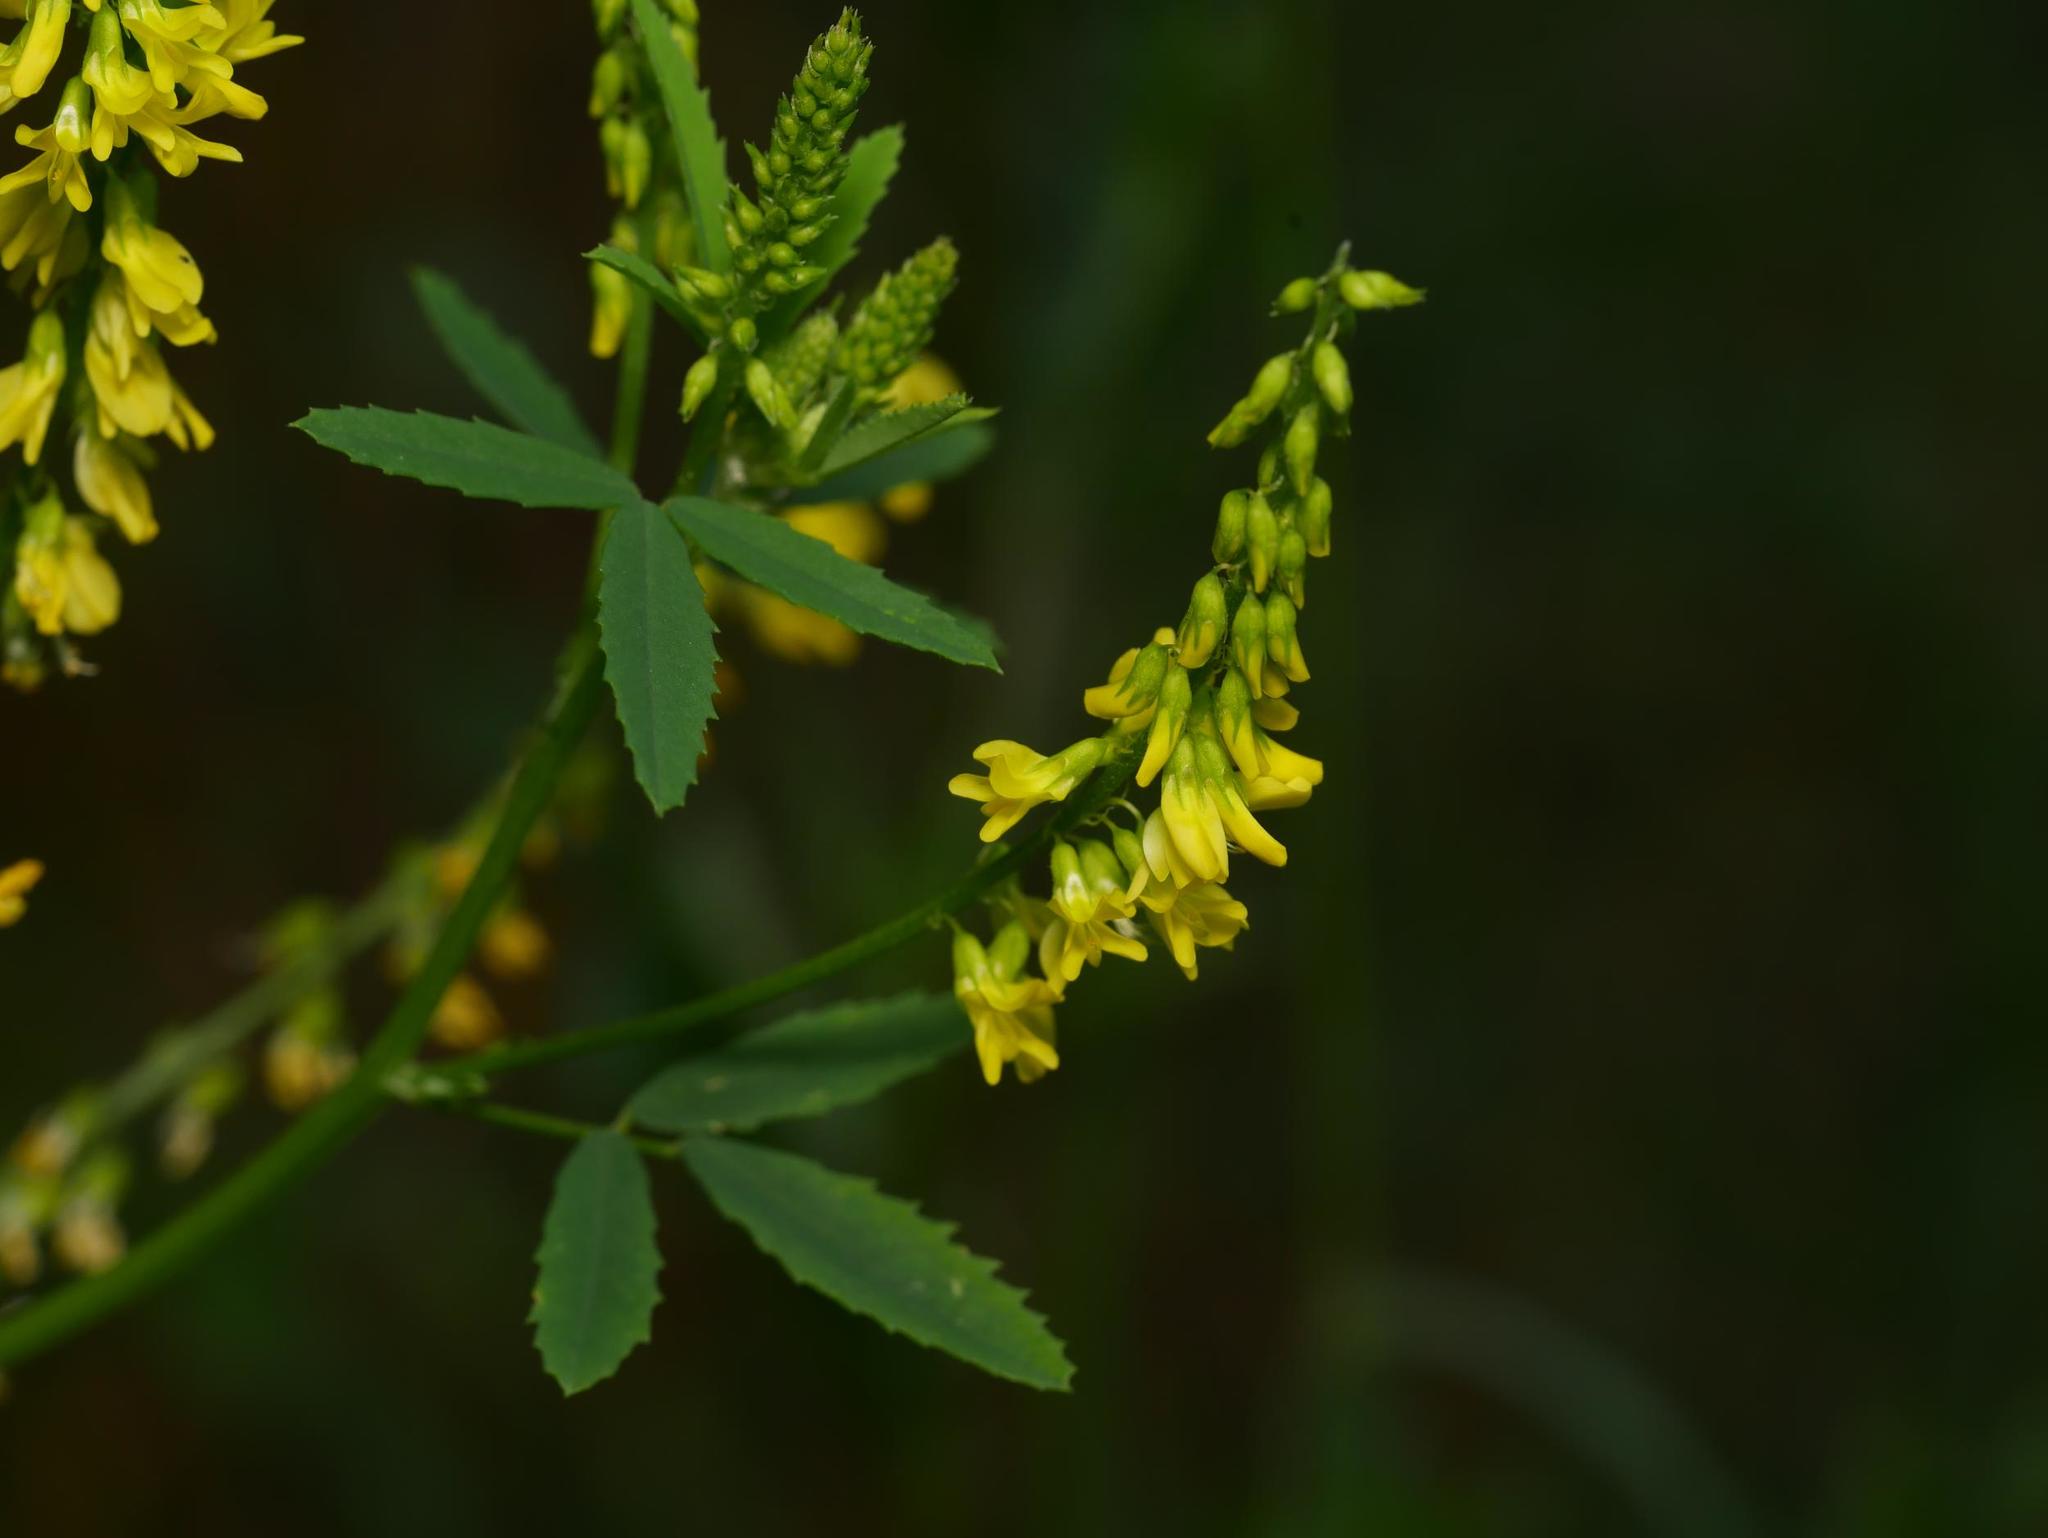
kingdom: Plantae
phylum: Tracheophyta
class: Magnoliopsida
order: Fabales
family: Fabaceae
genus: Melilotus
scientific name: Melilotus officinalis
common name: Sweetclover
